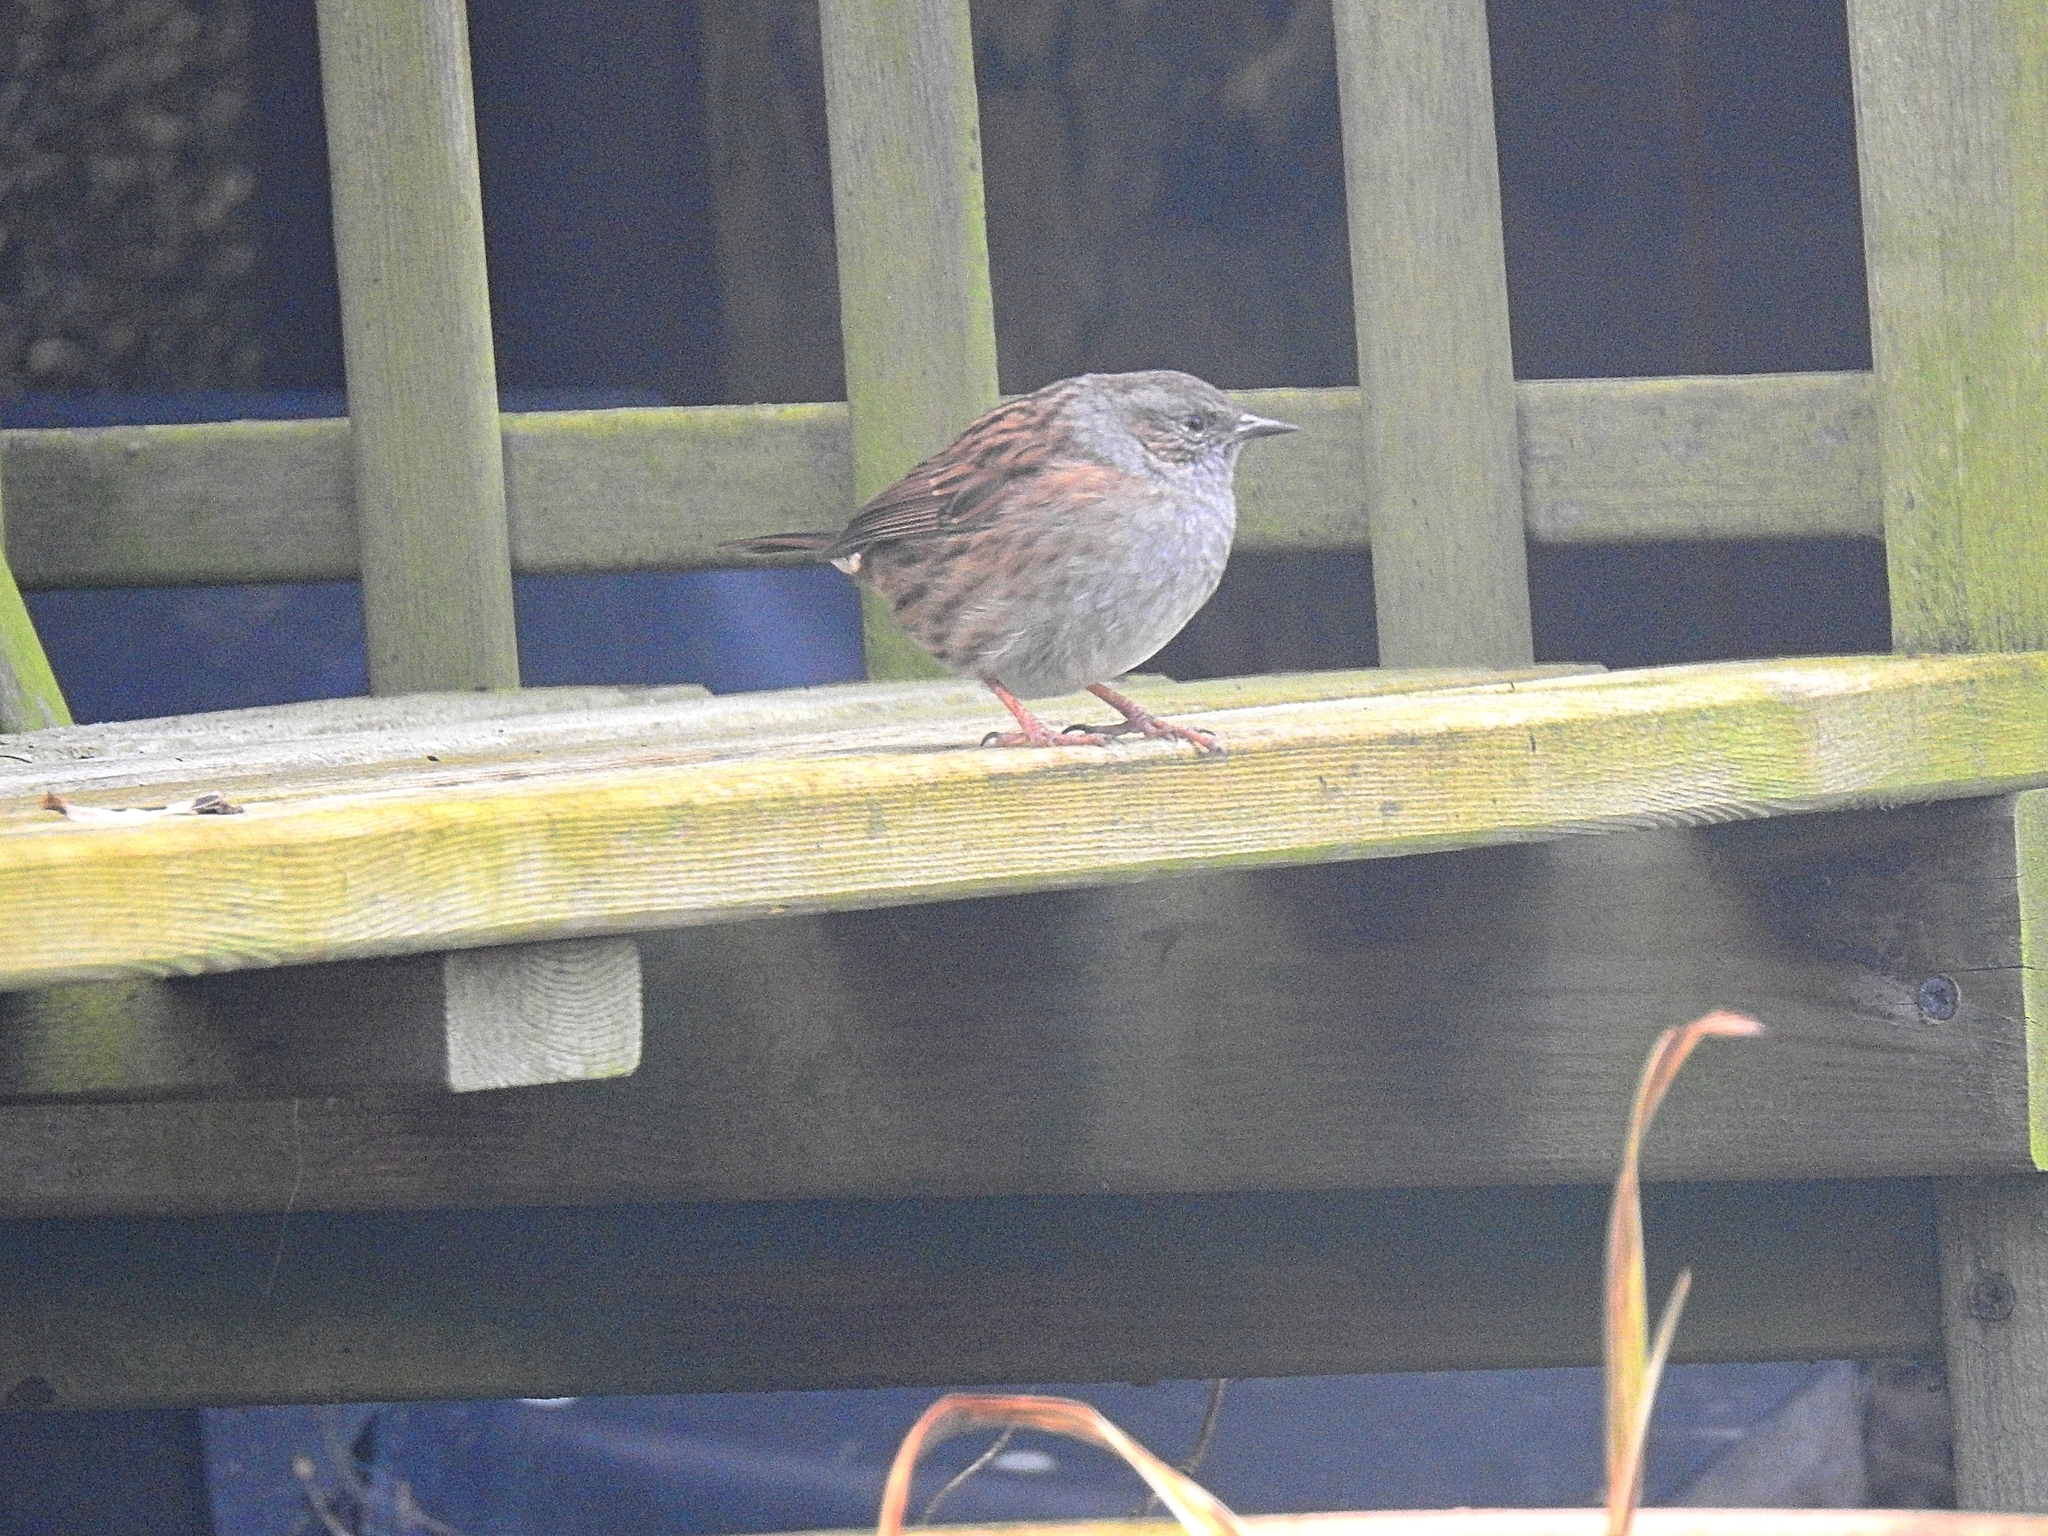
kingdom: Animalia
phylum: Chordata
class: Aves
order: Passeriformes
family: Prunellidae
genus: Prunella
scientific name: Prunella modularis
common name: Dunnock
